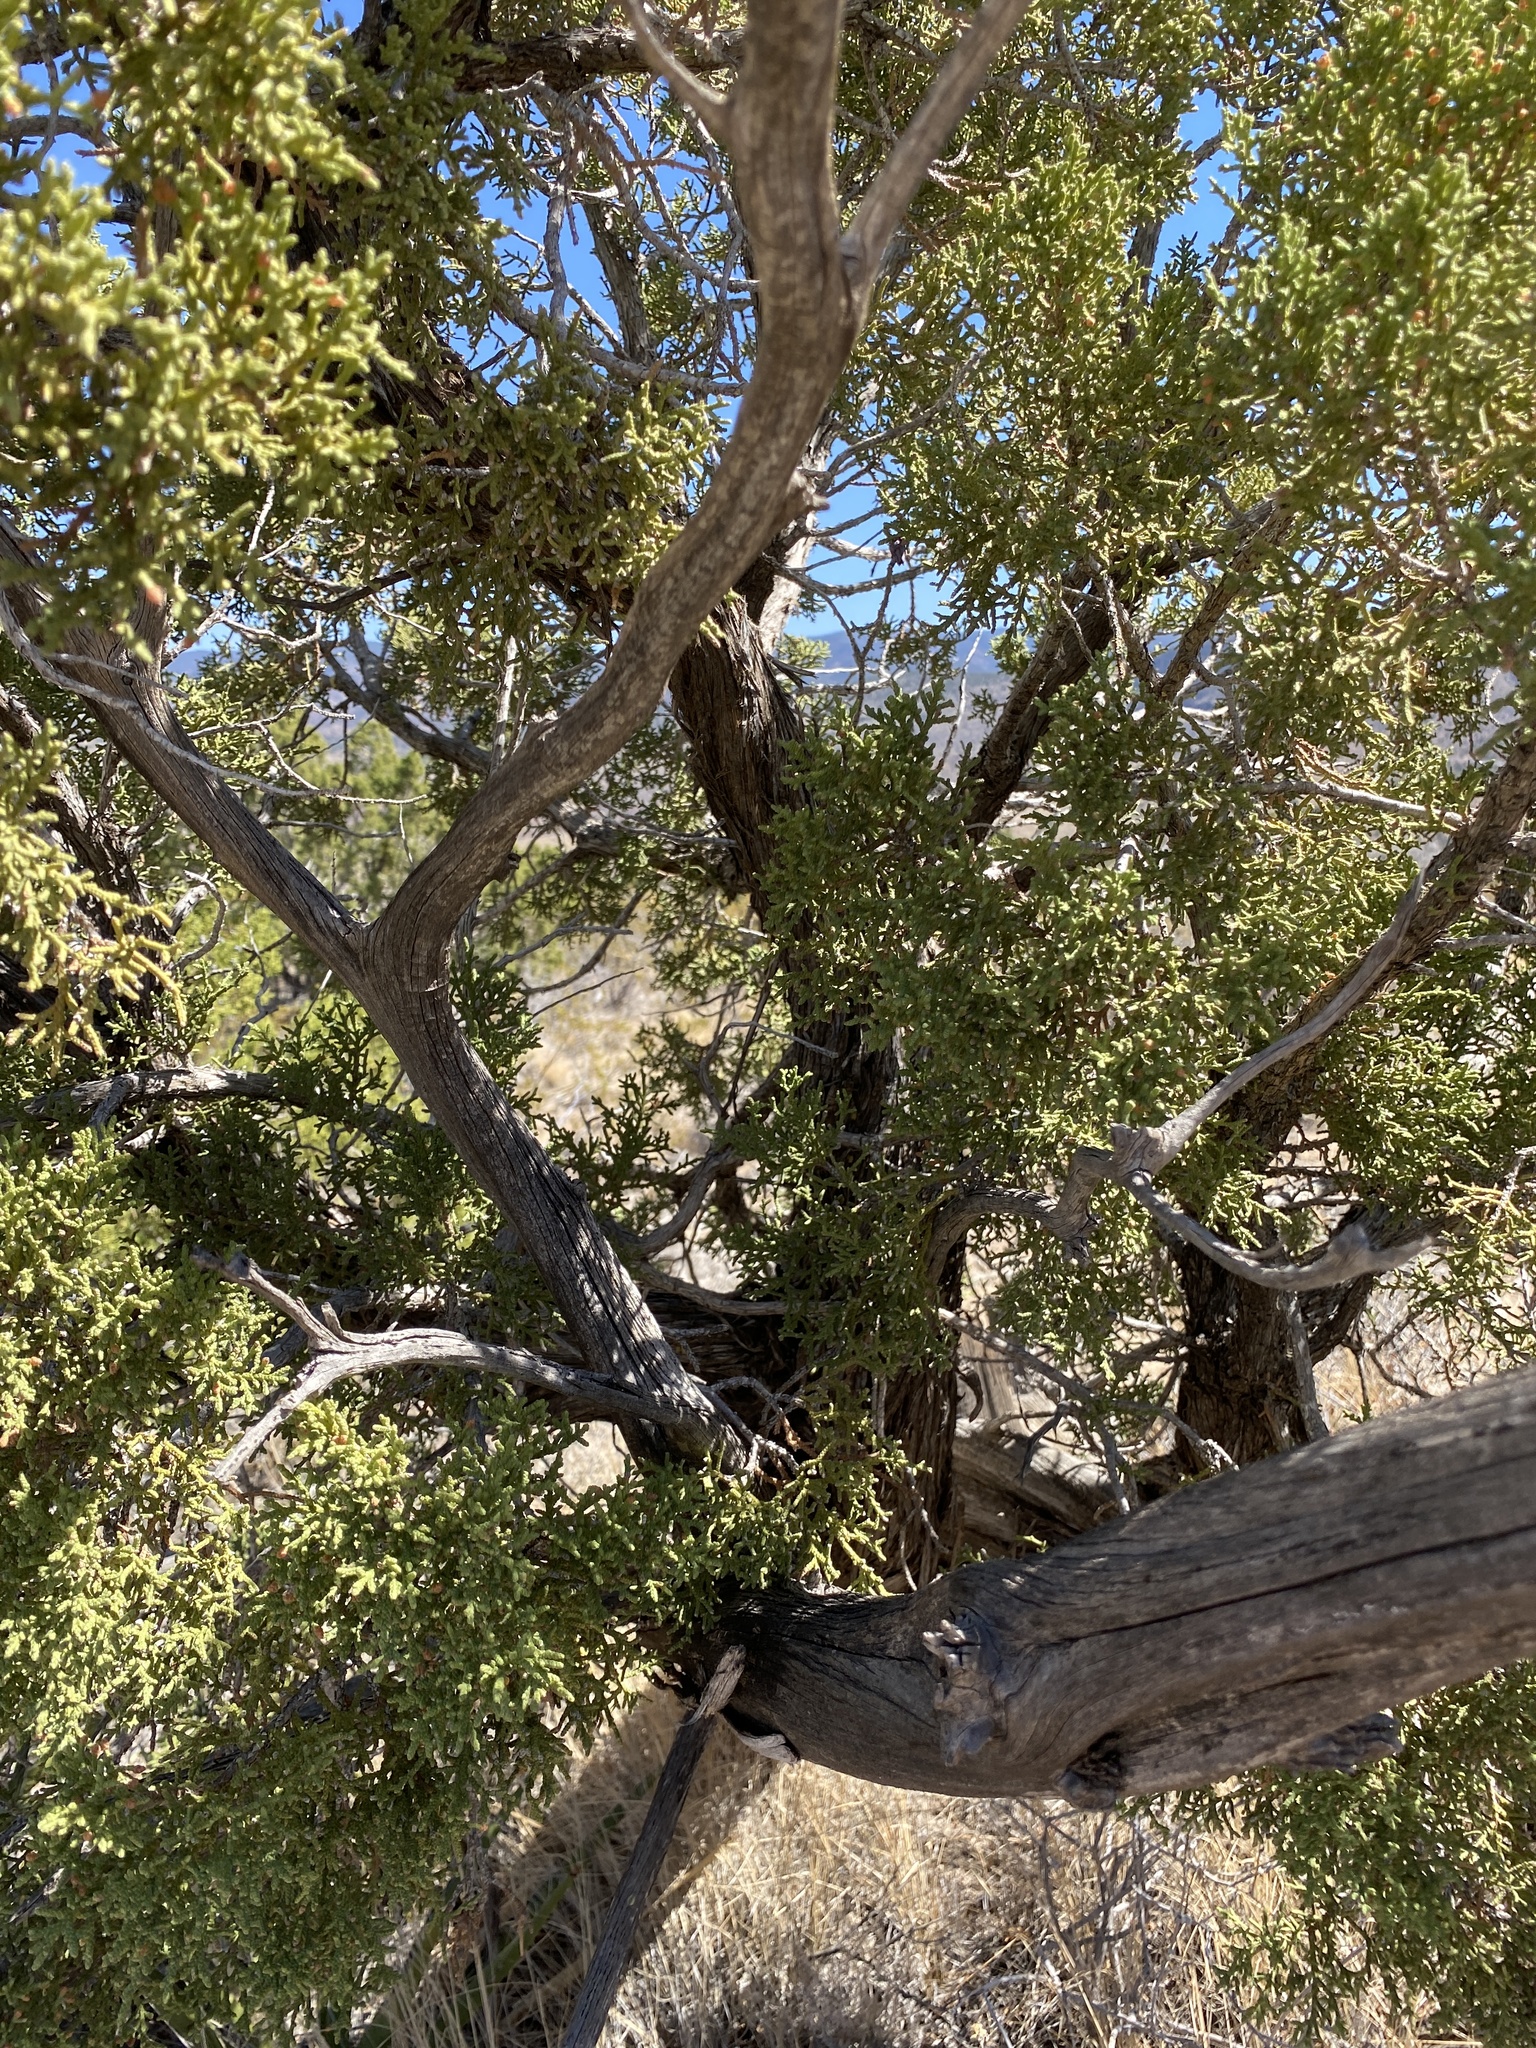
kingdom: Plantae
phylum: Tracheophyta
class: Pinopsida
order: Pinales
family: Cupressaceae
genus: Juniperus
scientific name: Juniperus monosperma
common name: One-seed juniper
